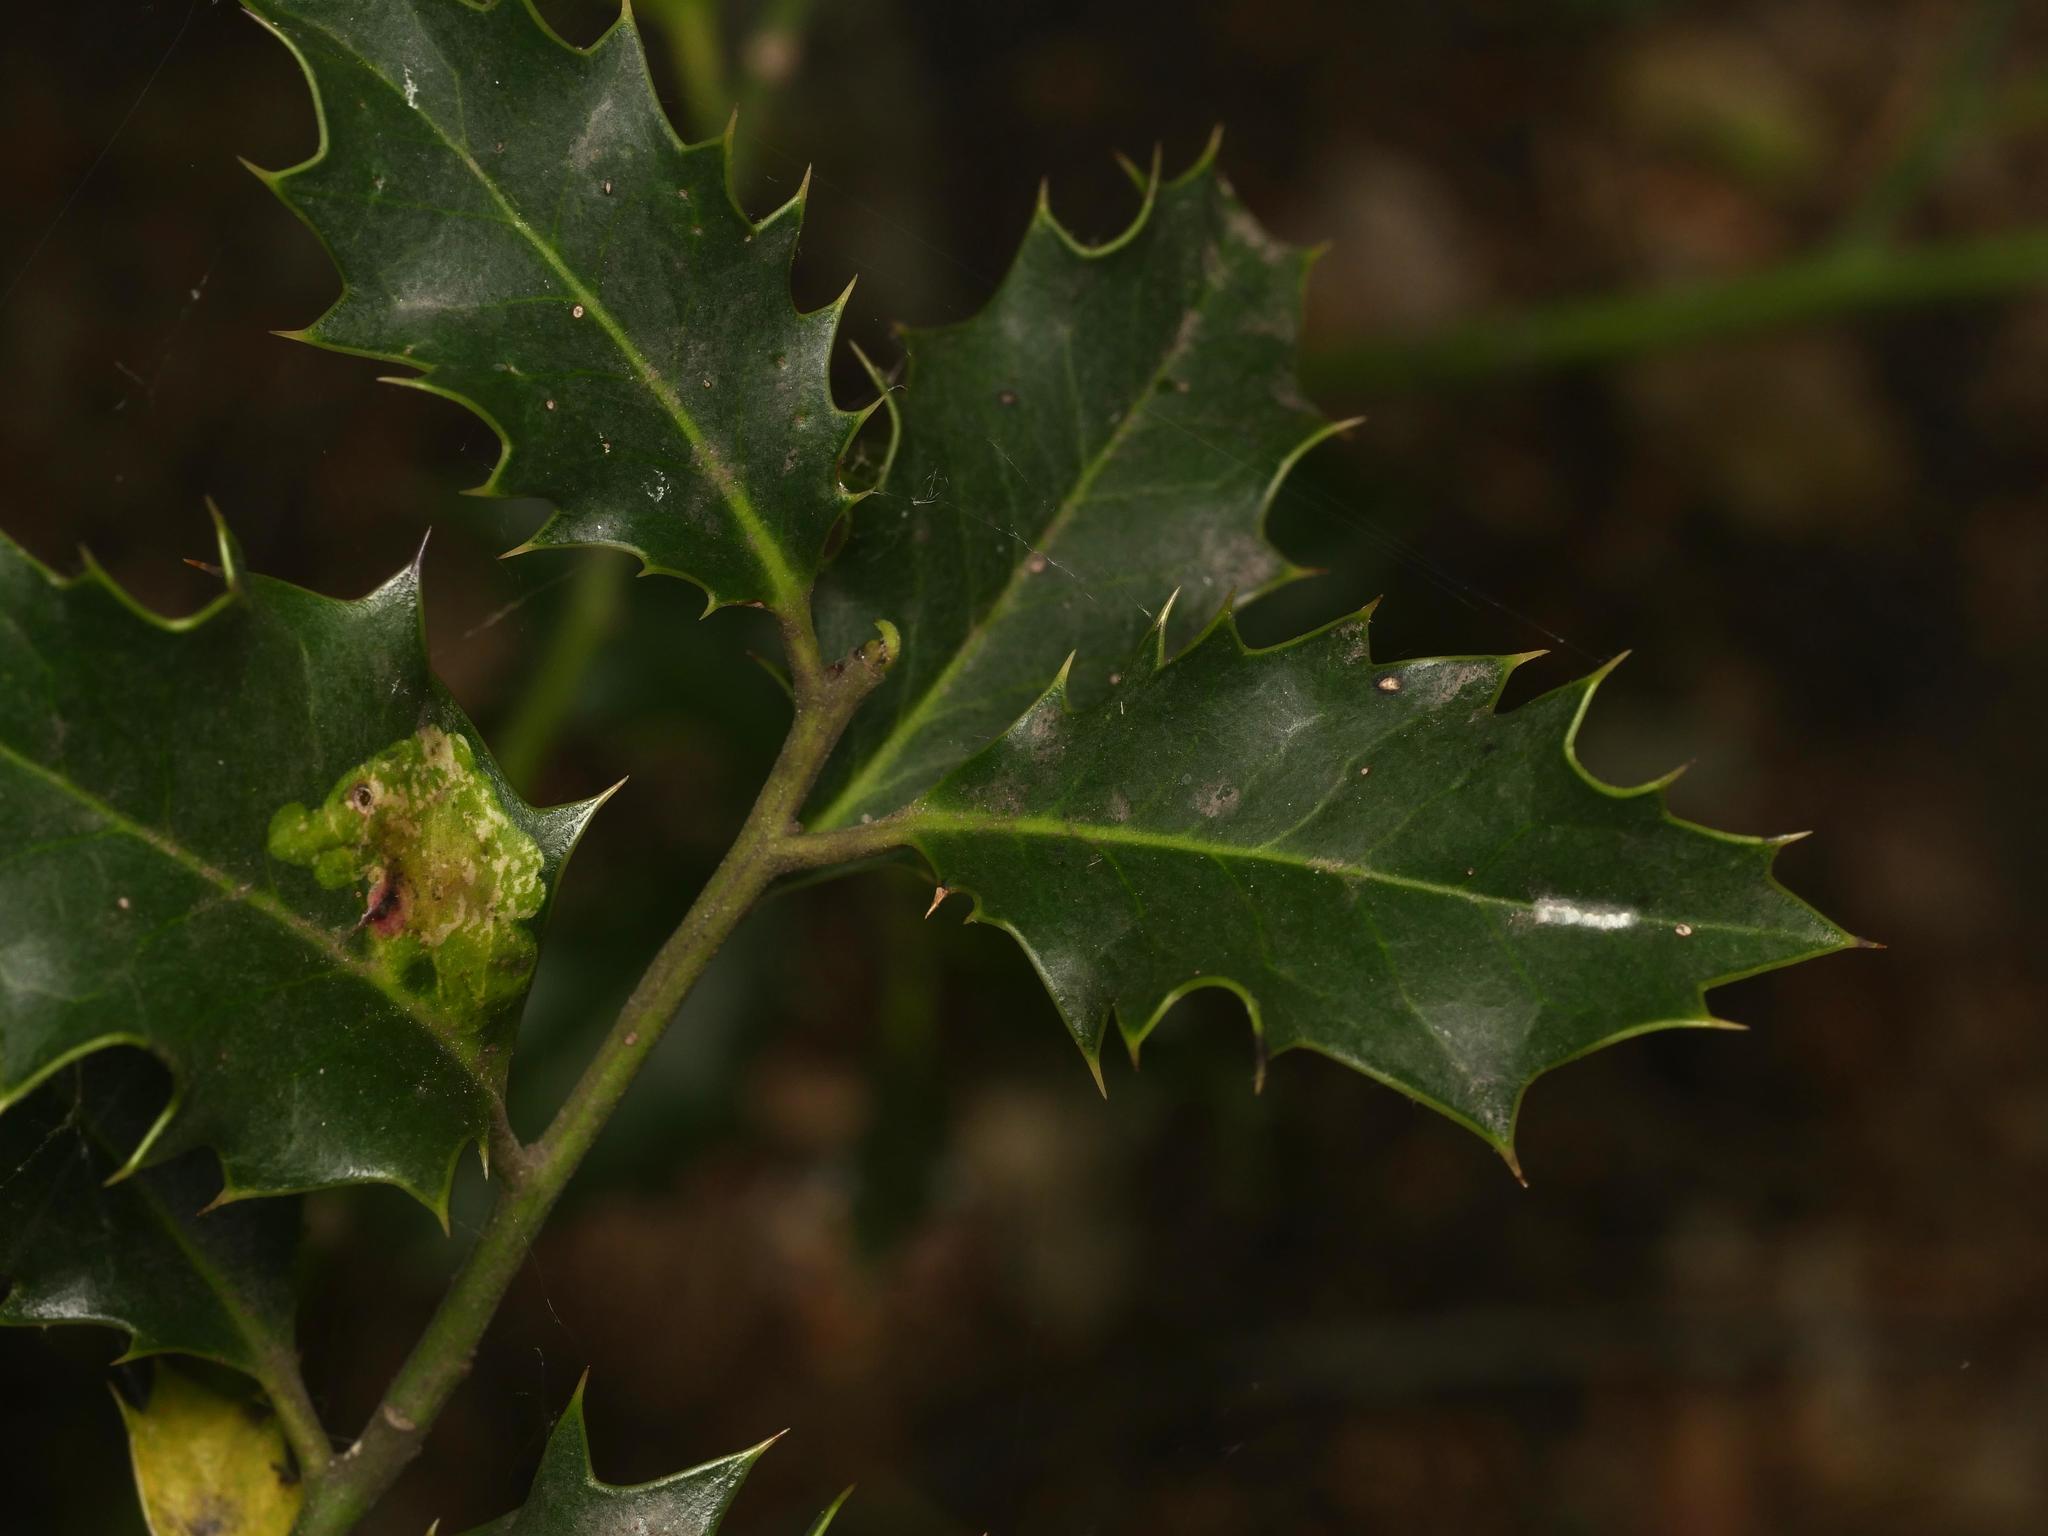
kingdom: Plantae
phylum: Tracheophyta
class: Magnoliopsida
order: Aquifoliales
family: Aquifoliaceae
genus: Ilex
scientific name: Ilex aquifolium
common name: English holly
